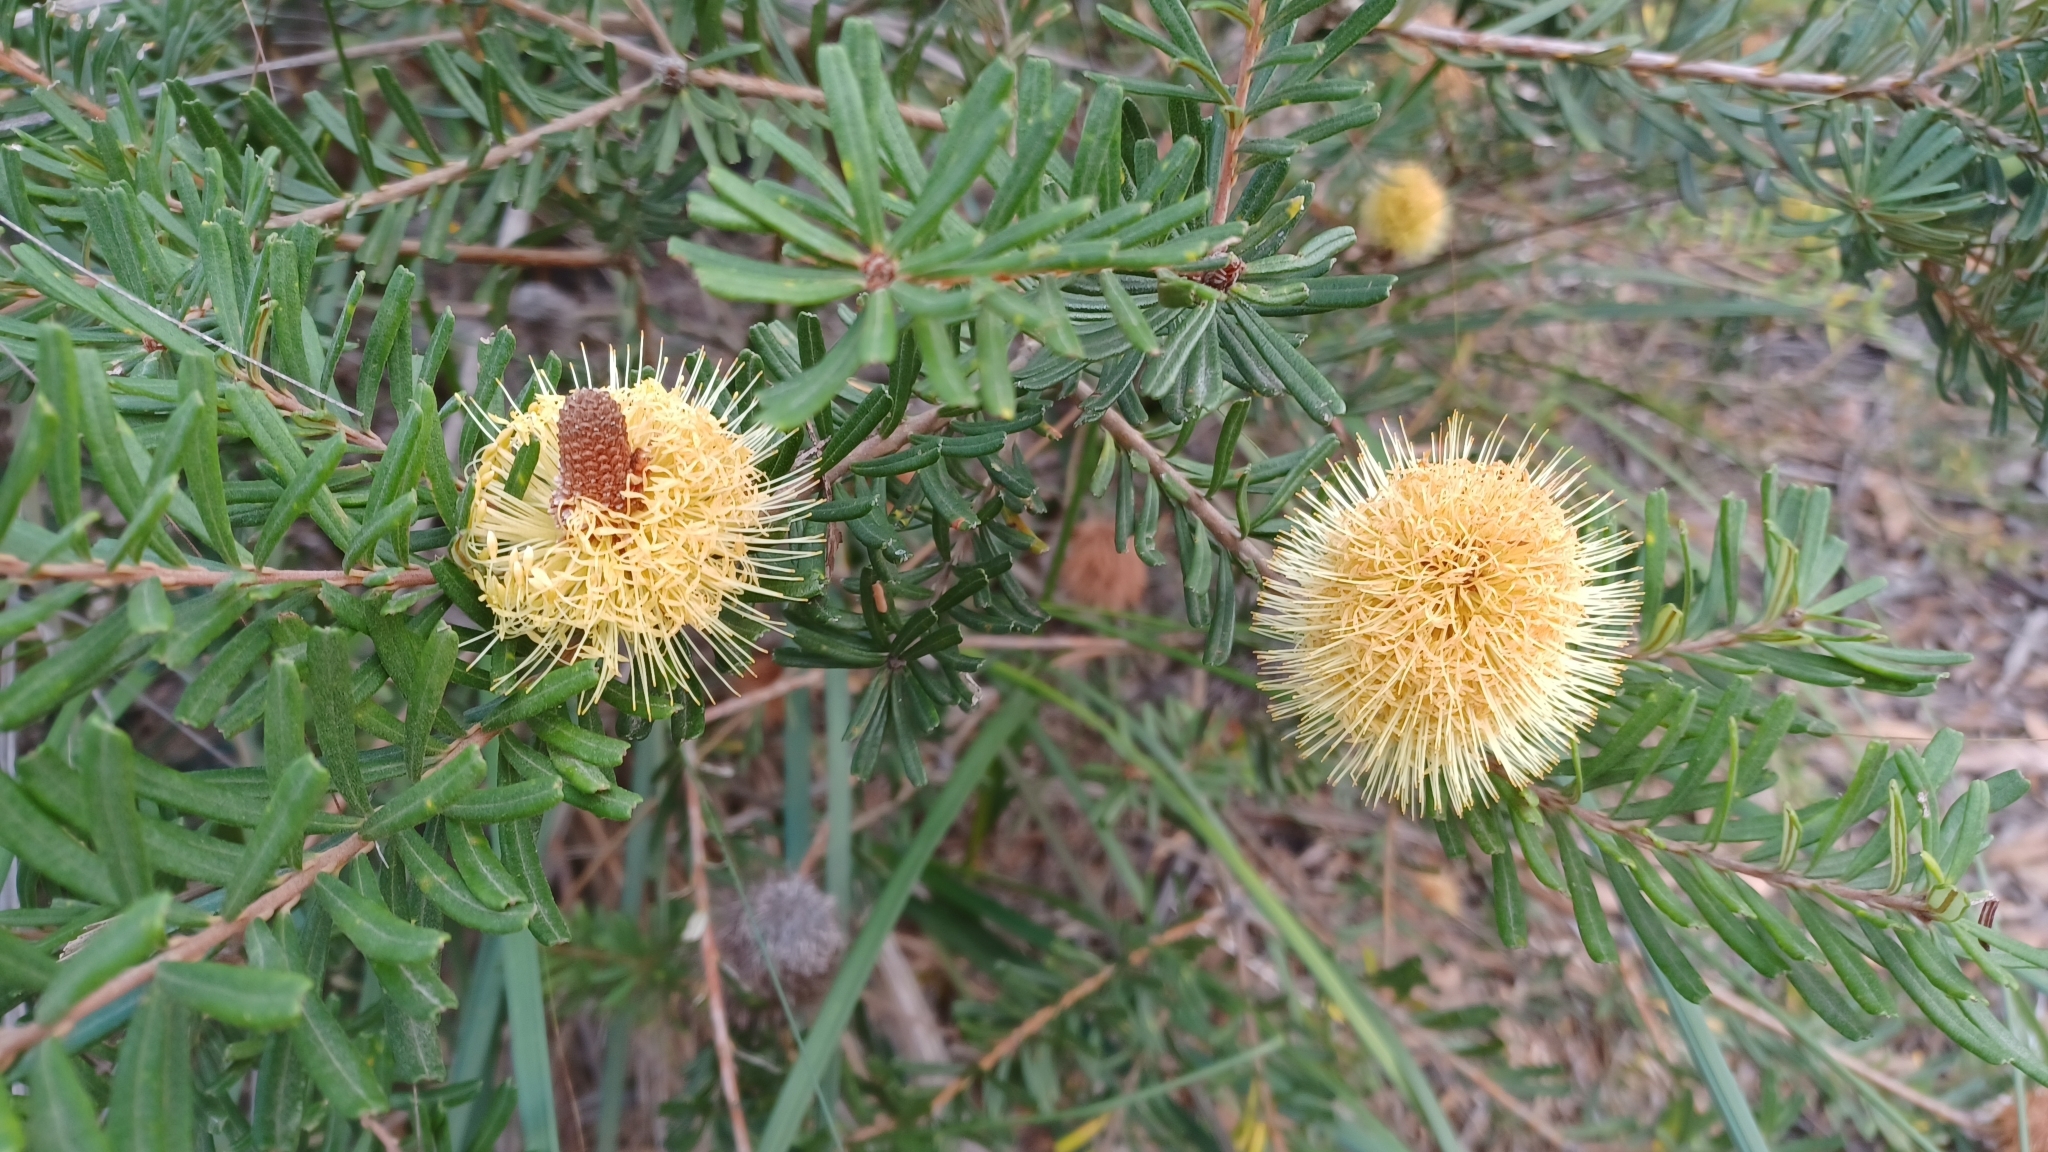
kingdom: Plantae
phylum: Tracheophyta
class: Magnoliopsida
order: Proteales
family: Proteaceae
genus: Banksia
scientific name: Banksia marginata
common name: Silver banksia
